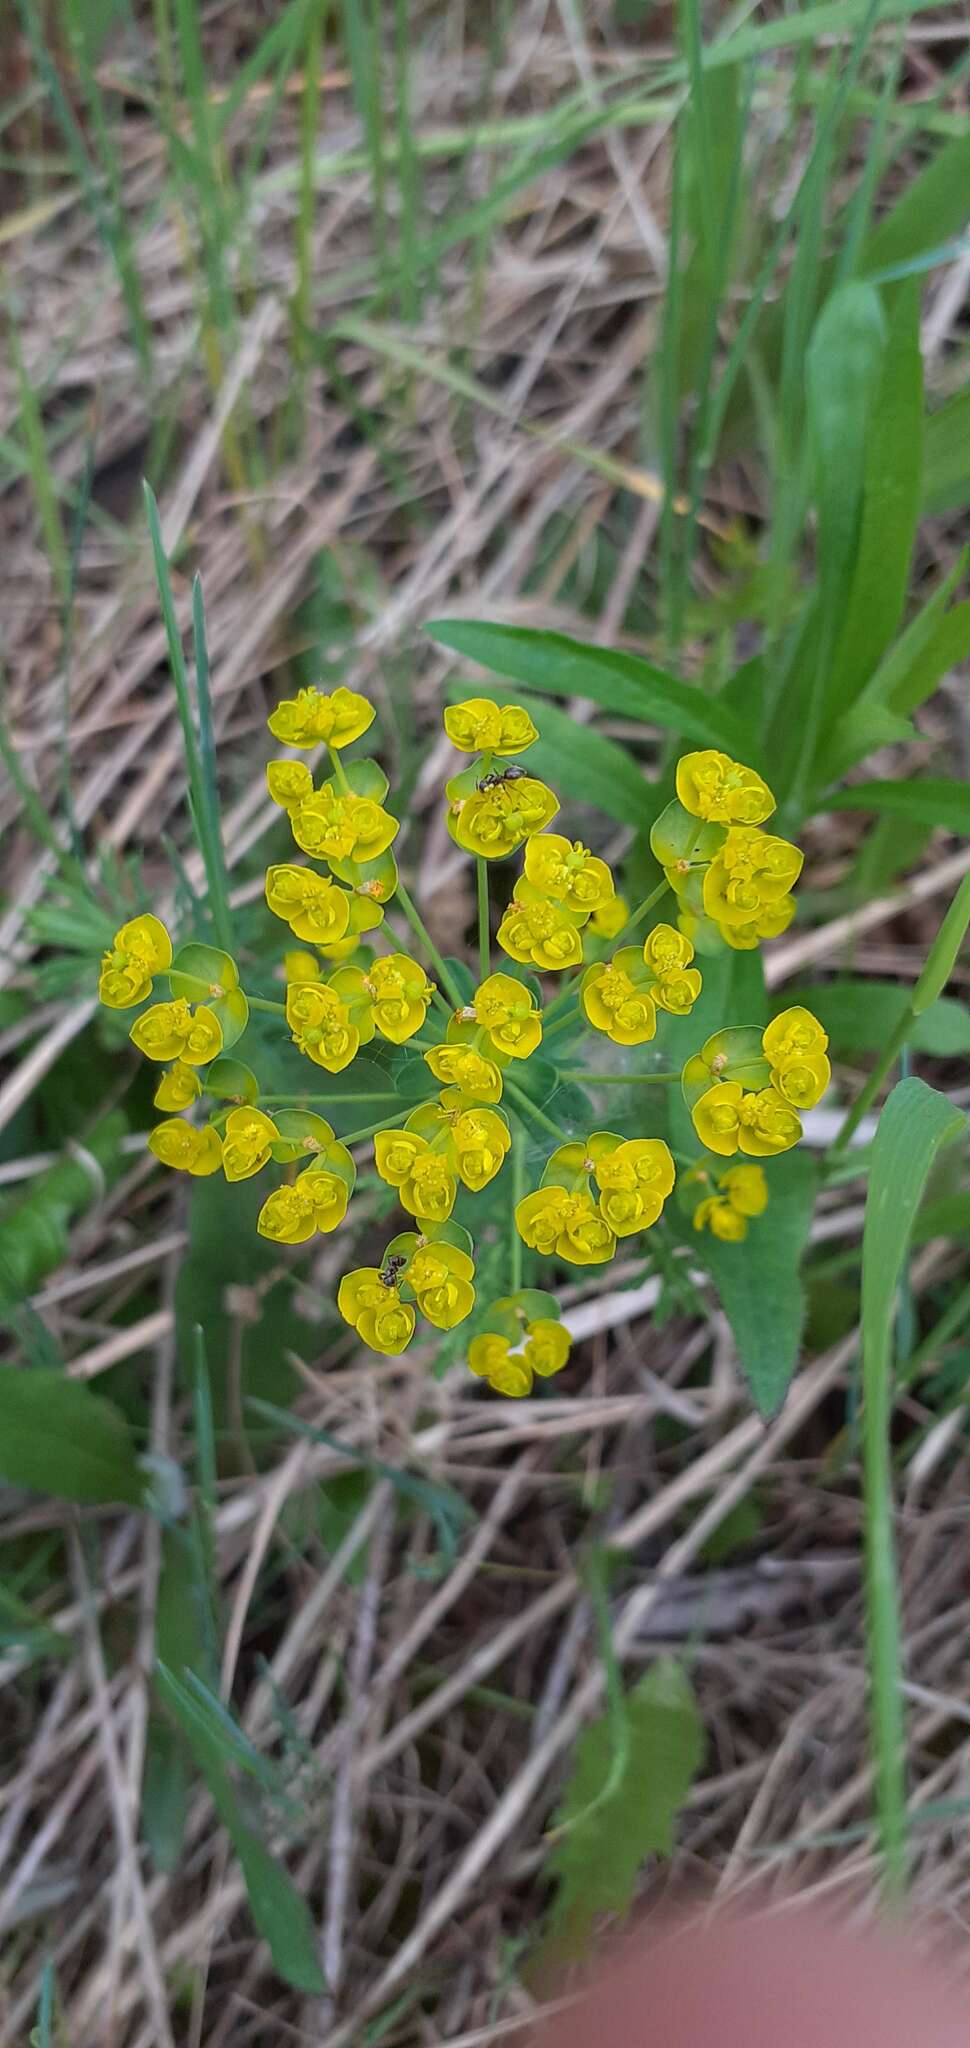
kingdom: Plantae
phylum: Tracheophyta
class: Magnoliopsida
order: Malpighiales
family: Euphorbiaceae
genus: Euphorbia
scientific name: Euphorbia cyparissias
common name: Cypress spurge
